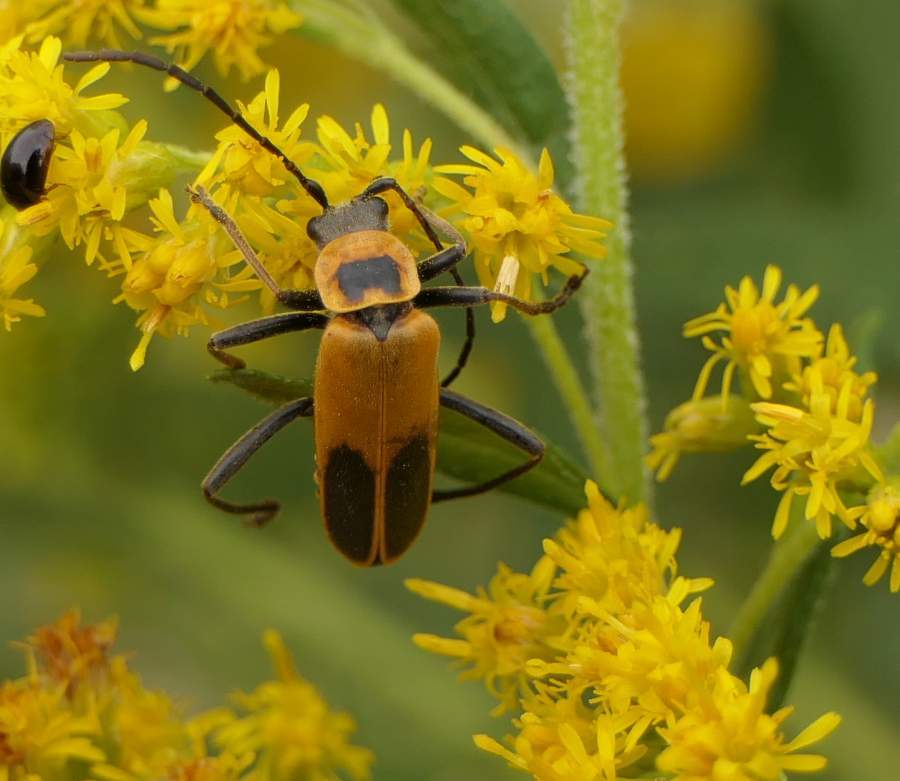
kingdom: Animalia
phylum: Arthropoda
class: Insecta
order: Coleoptera
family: Cantharidae
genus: Chauliognathus
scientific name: Chauliognathus pensylvanicus
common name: Goldenrod soldier beetle
